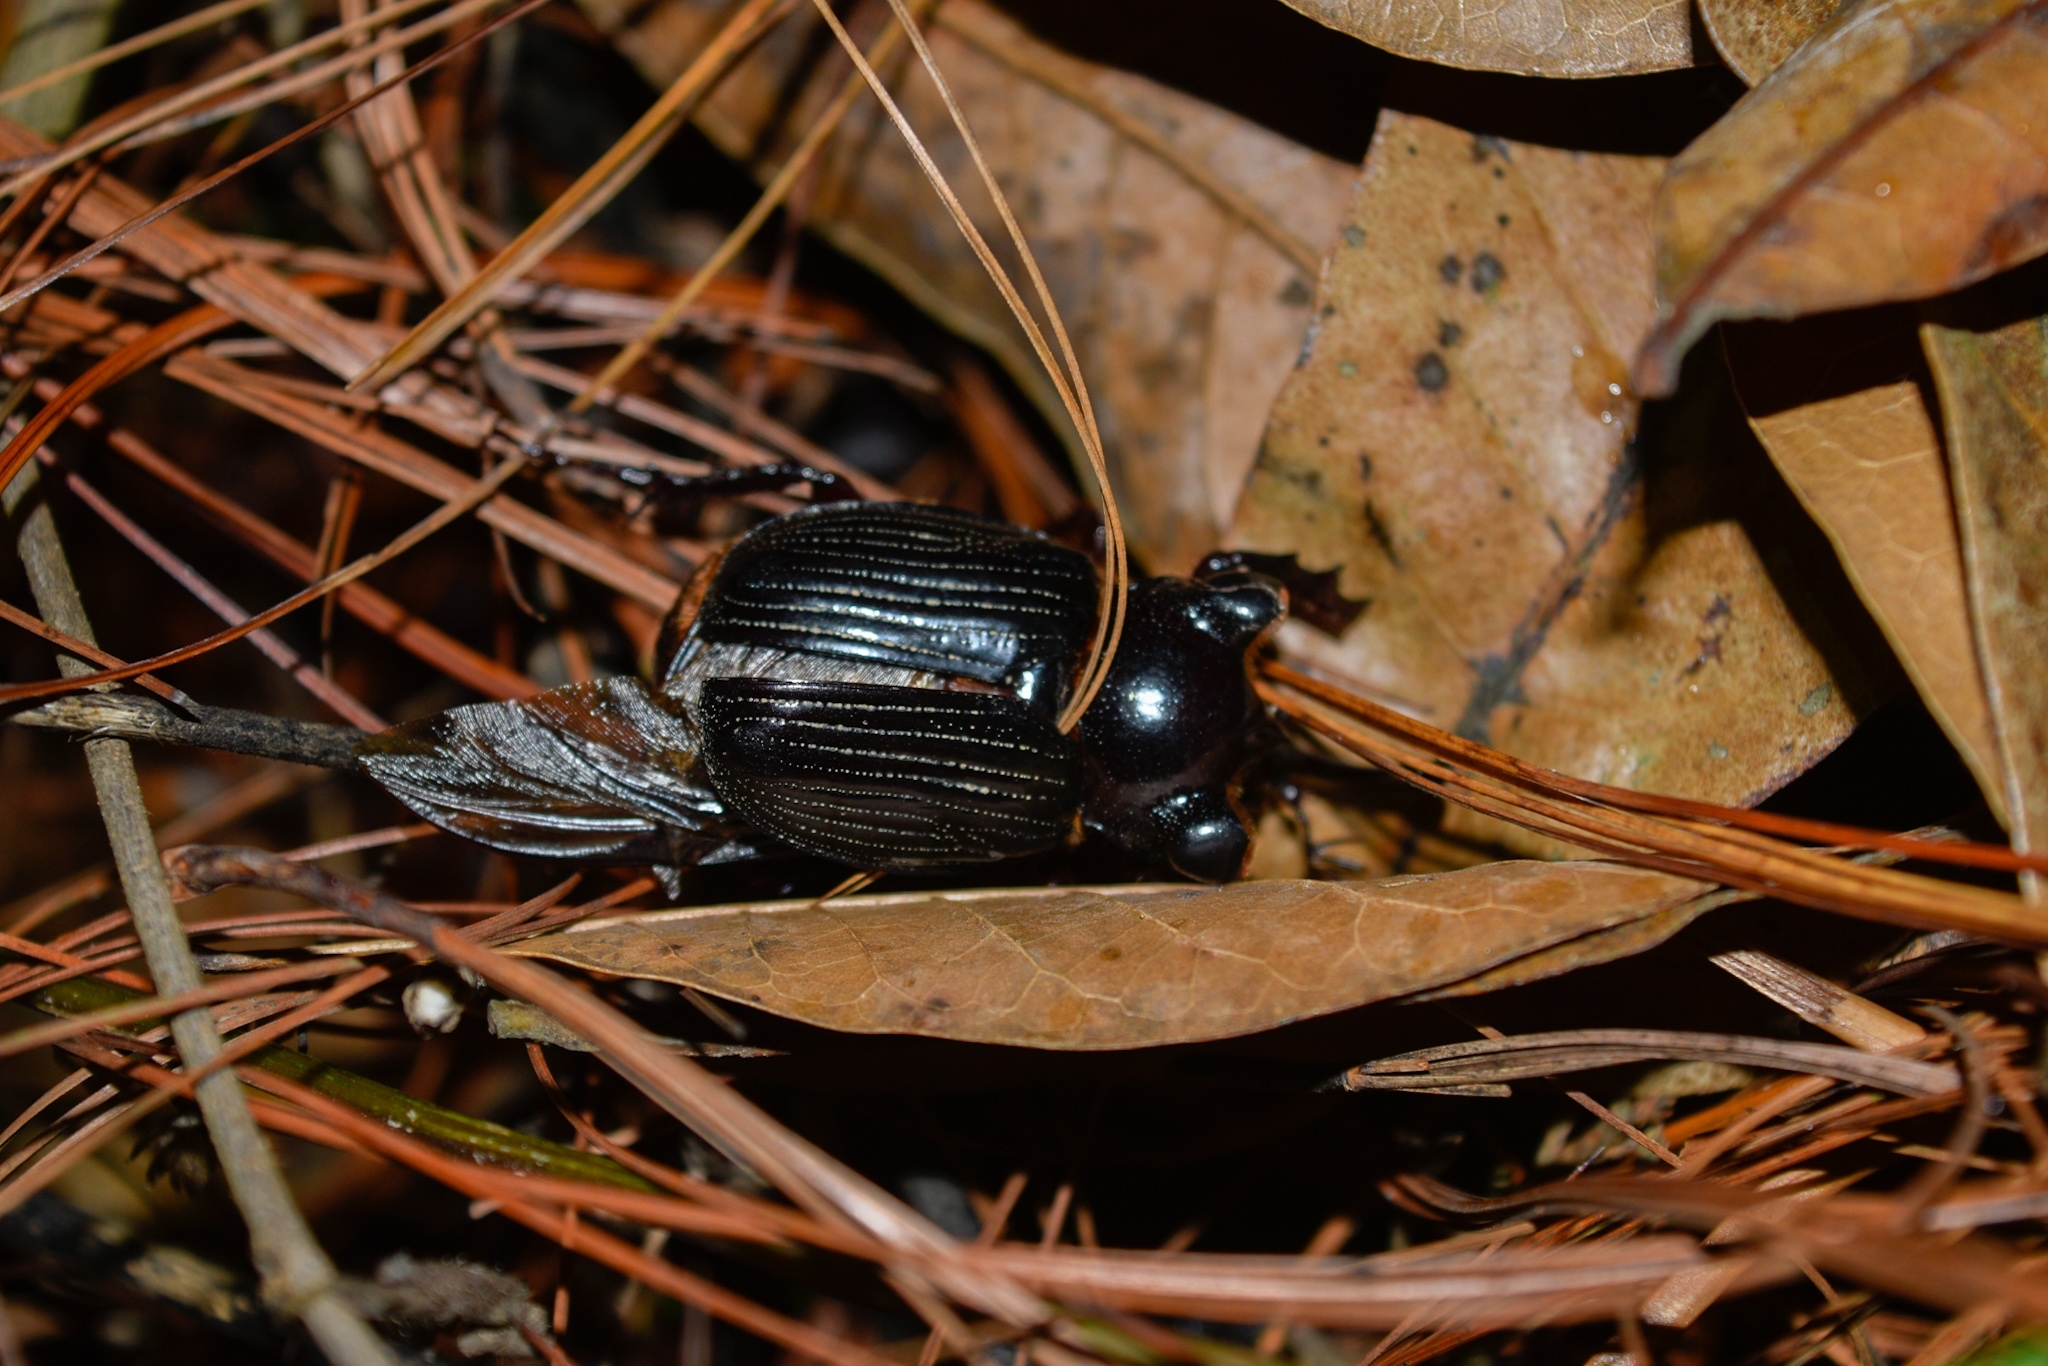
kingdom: Animalia
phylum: Arthropoda
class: Insecta
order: Coleoptera
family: Scarabaeidae
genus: Pantodinus
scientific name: Pantodinus klugi
